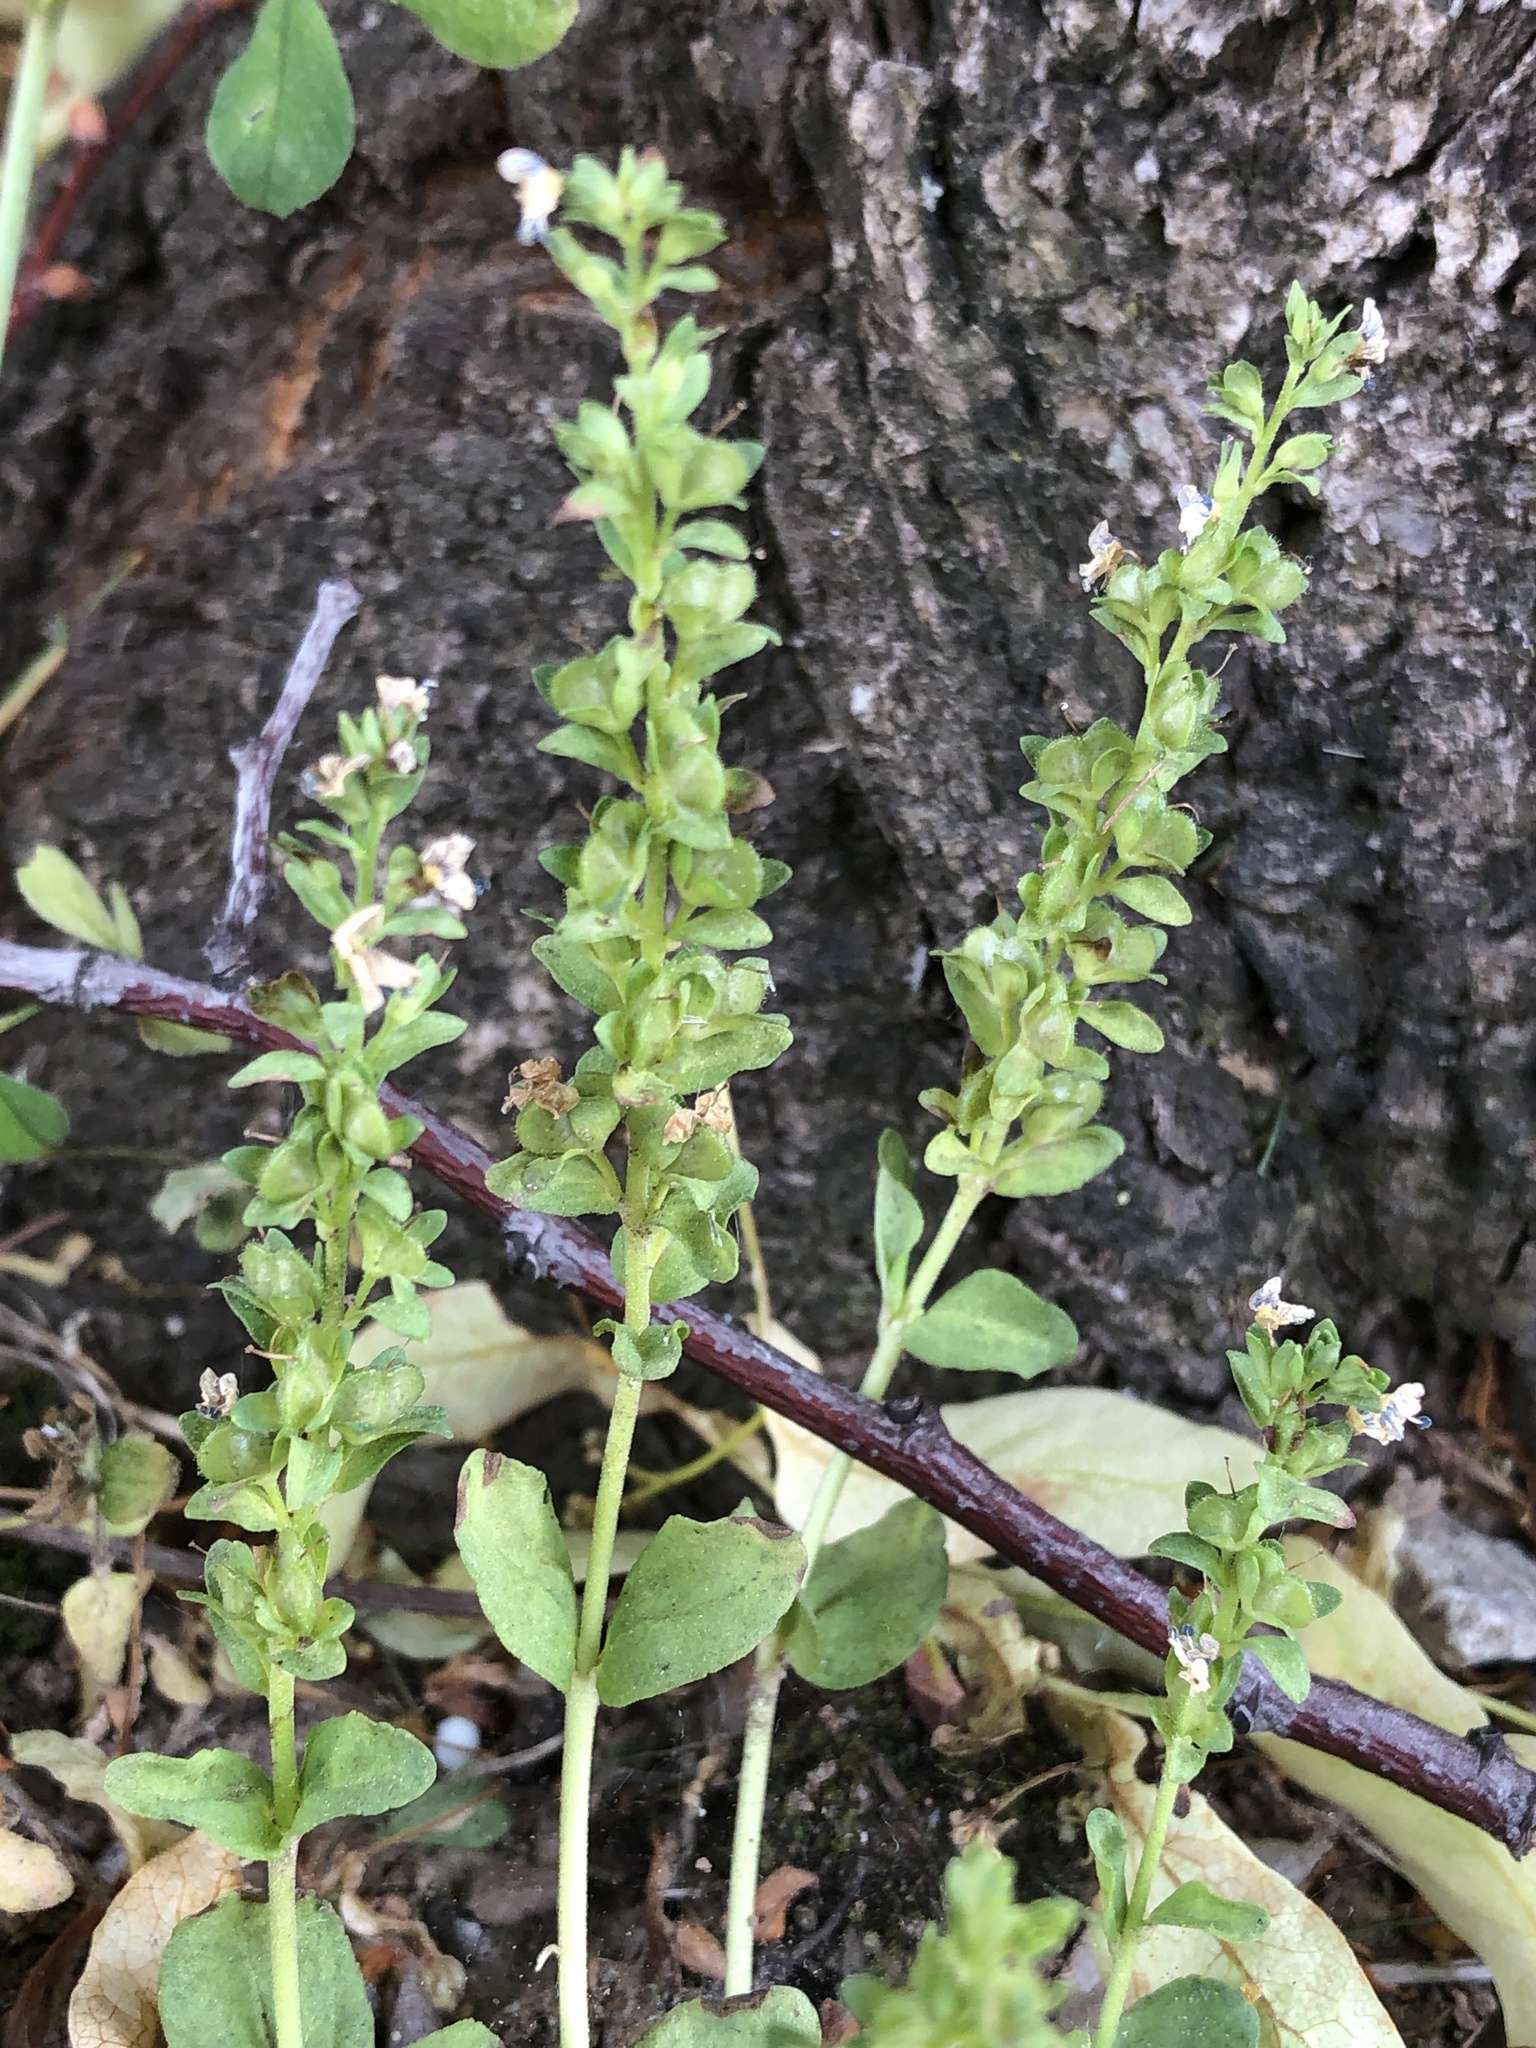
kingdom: Plantae
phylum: Tracheophyta
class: Magnoliopsida
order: Lamiales
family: Plantaginaceae
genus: Veronica
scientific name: Veronica serpyllifolia
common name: Thyme-leaved speedwell
